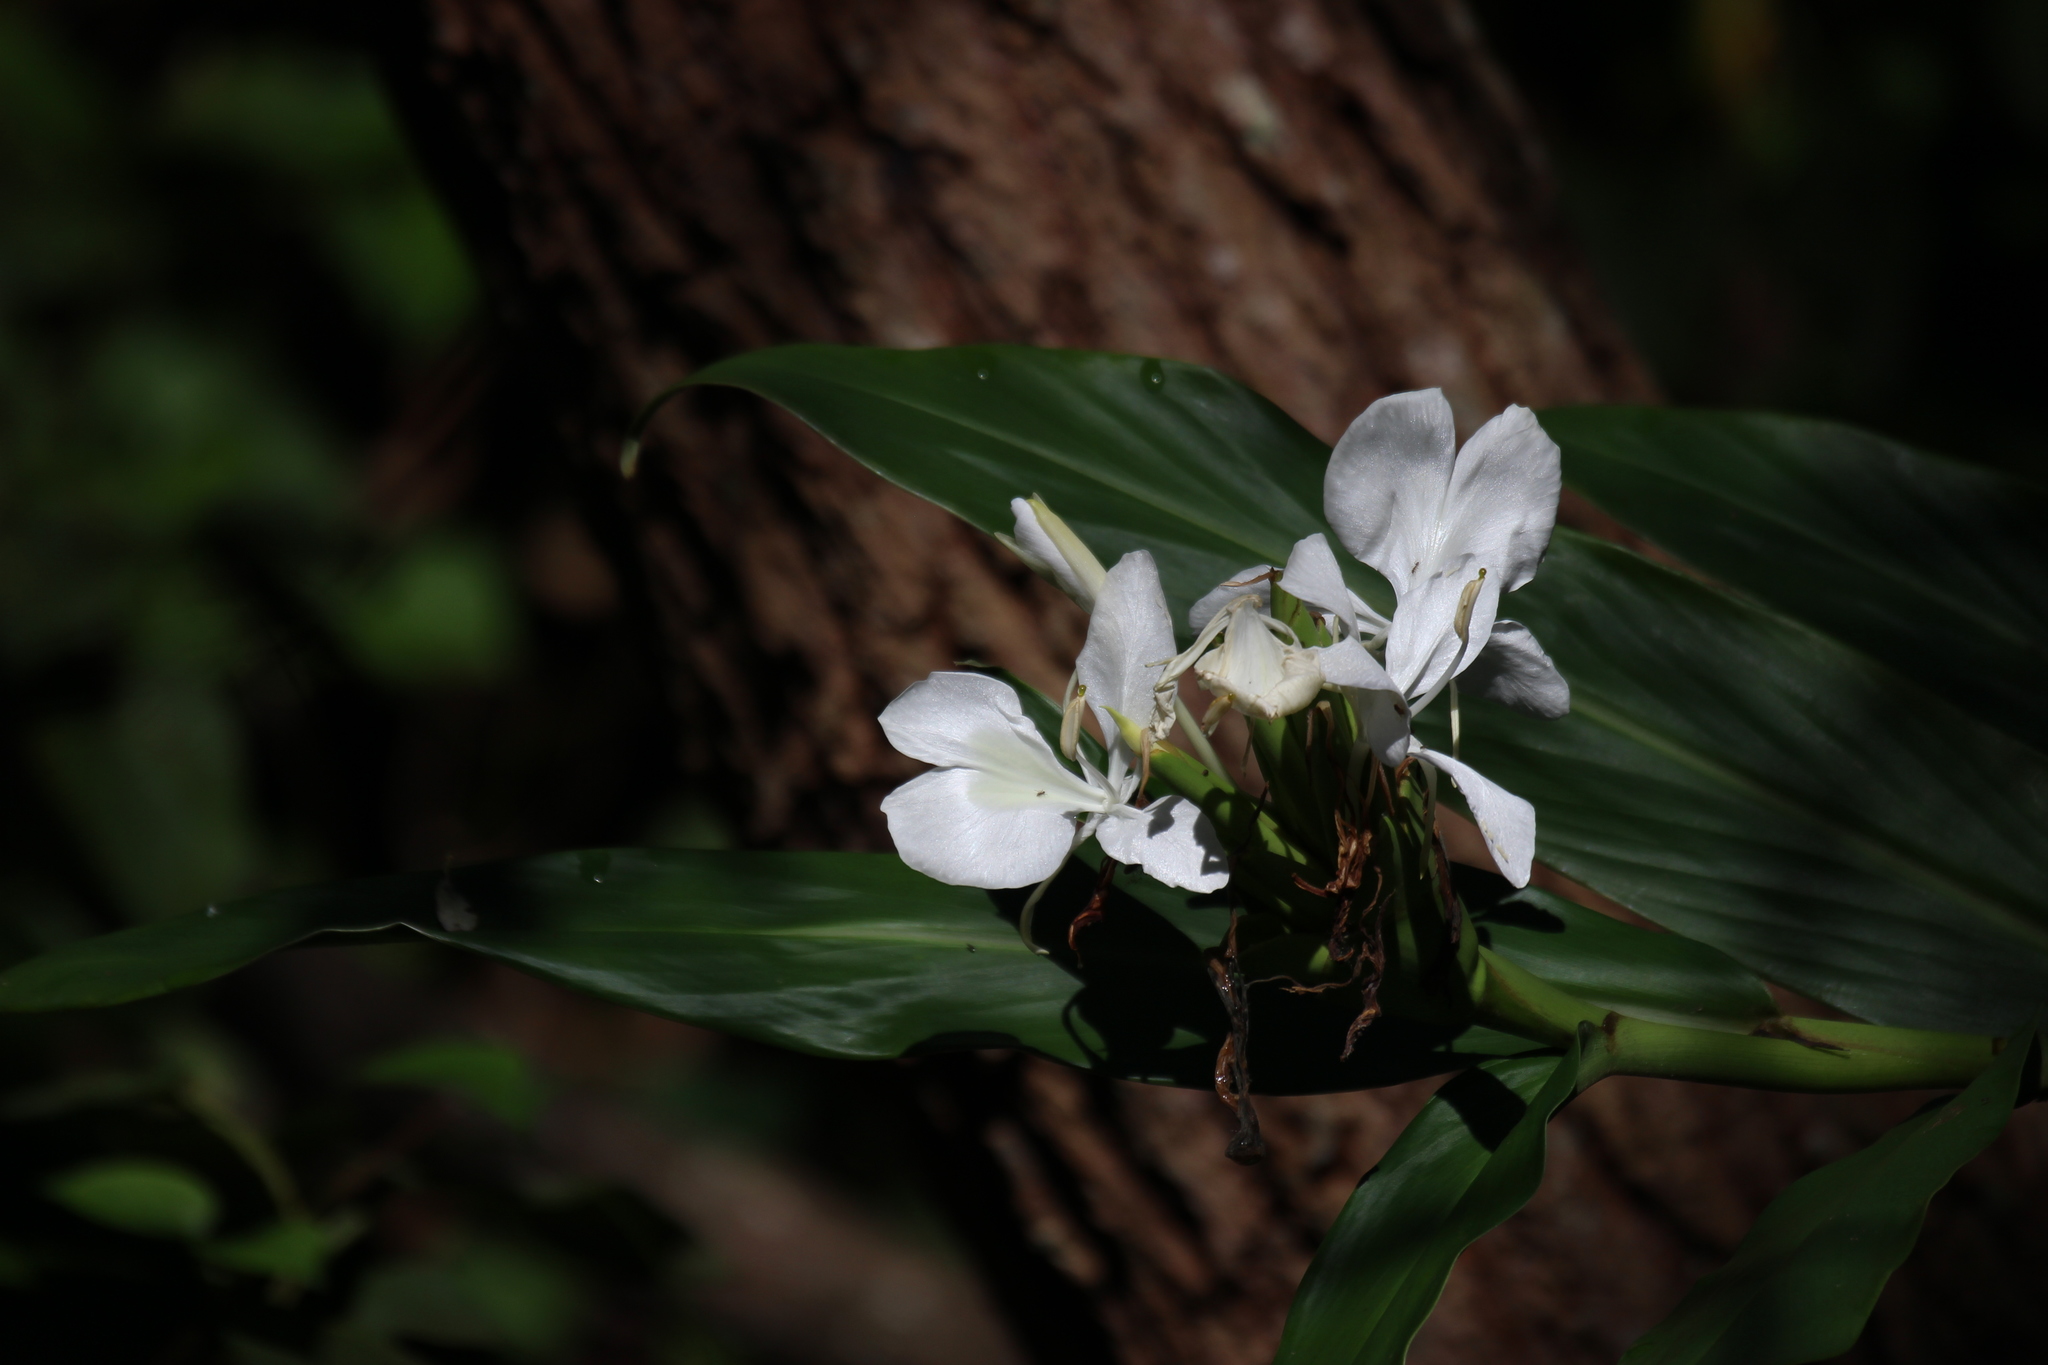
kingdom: Plantae
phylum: Tracheophyta
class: Liliopsida
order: Zingiberales
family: Zingiberaceae
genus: Hedychium
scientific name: Hedychium coronarium
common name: White garland-lily
